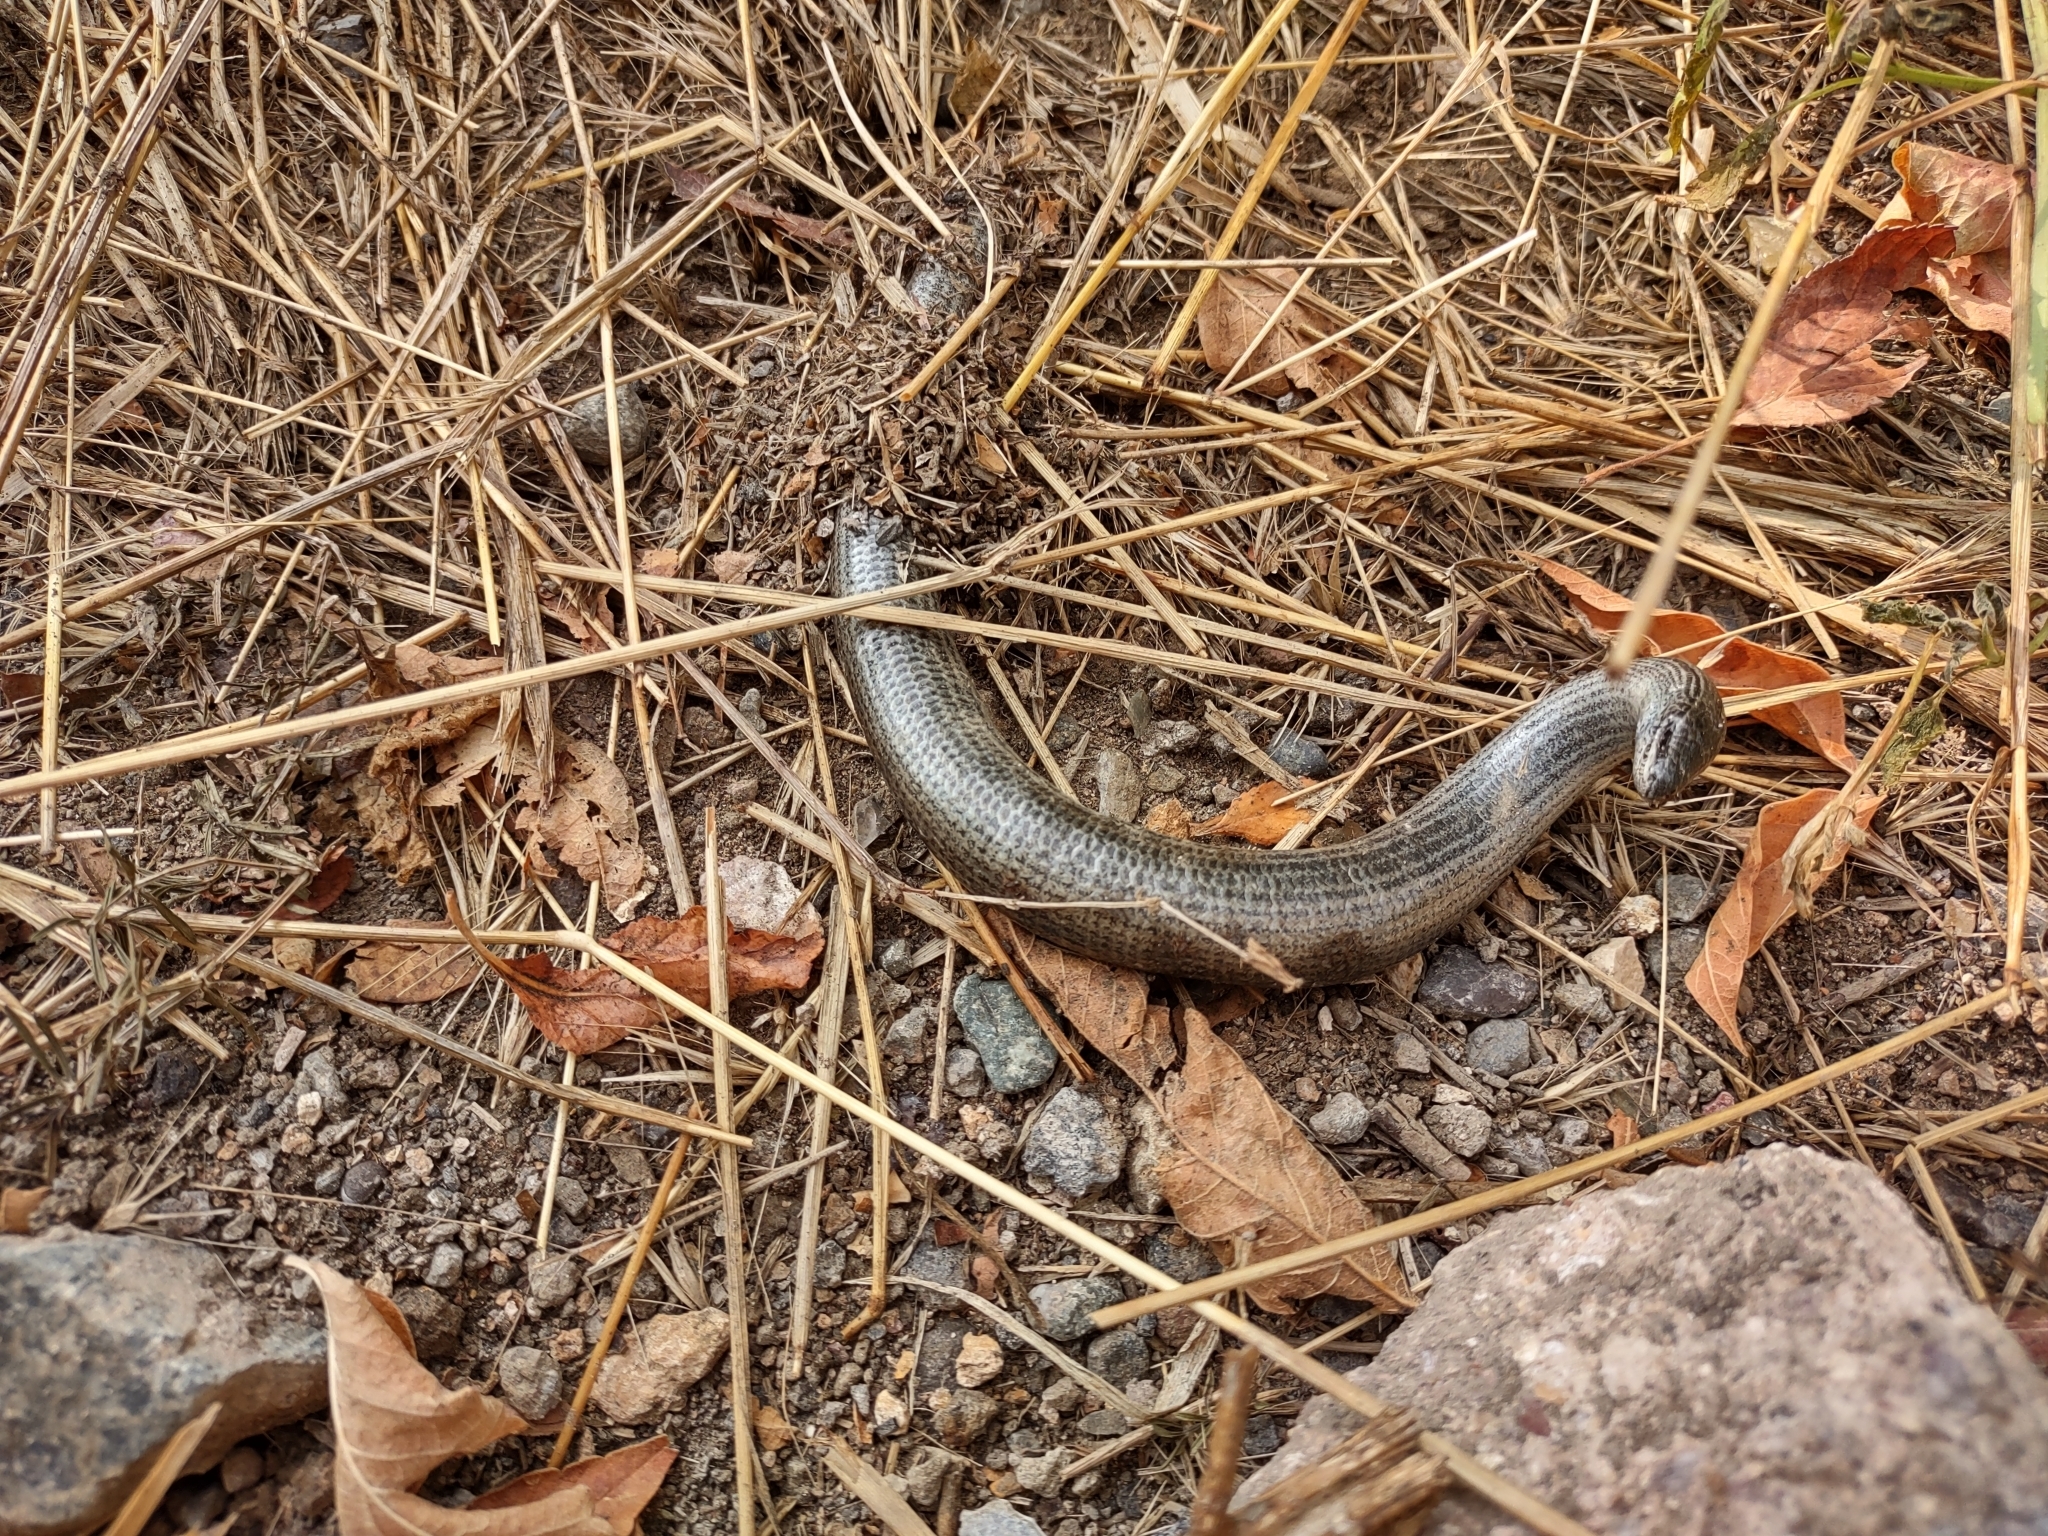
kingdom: Animalia
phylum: Chordata
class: Squamata
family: Anguidae
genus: Anguis
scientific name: Anguis colchica
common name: Slow worm
